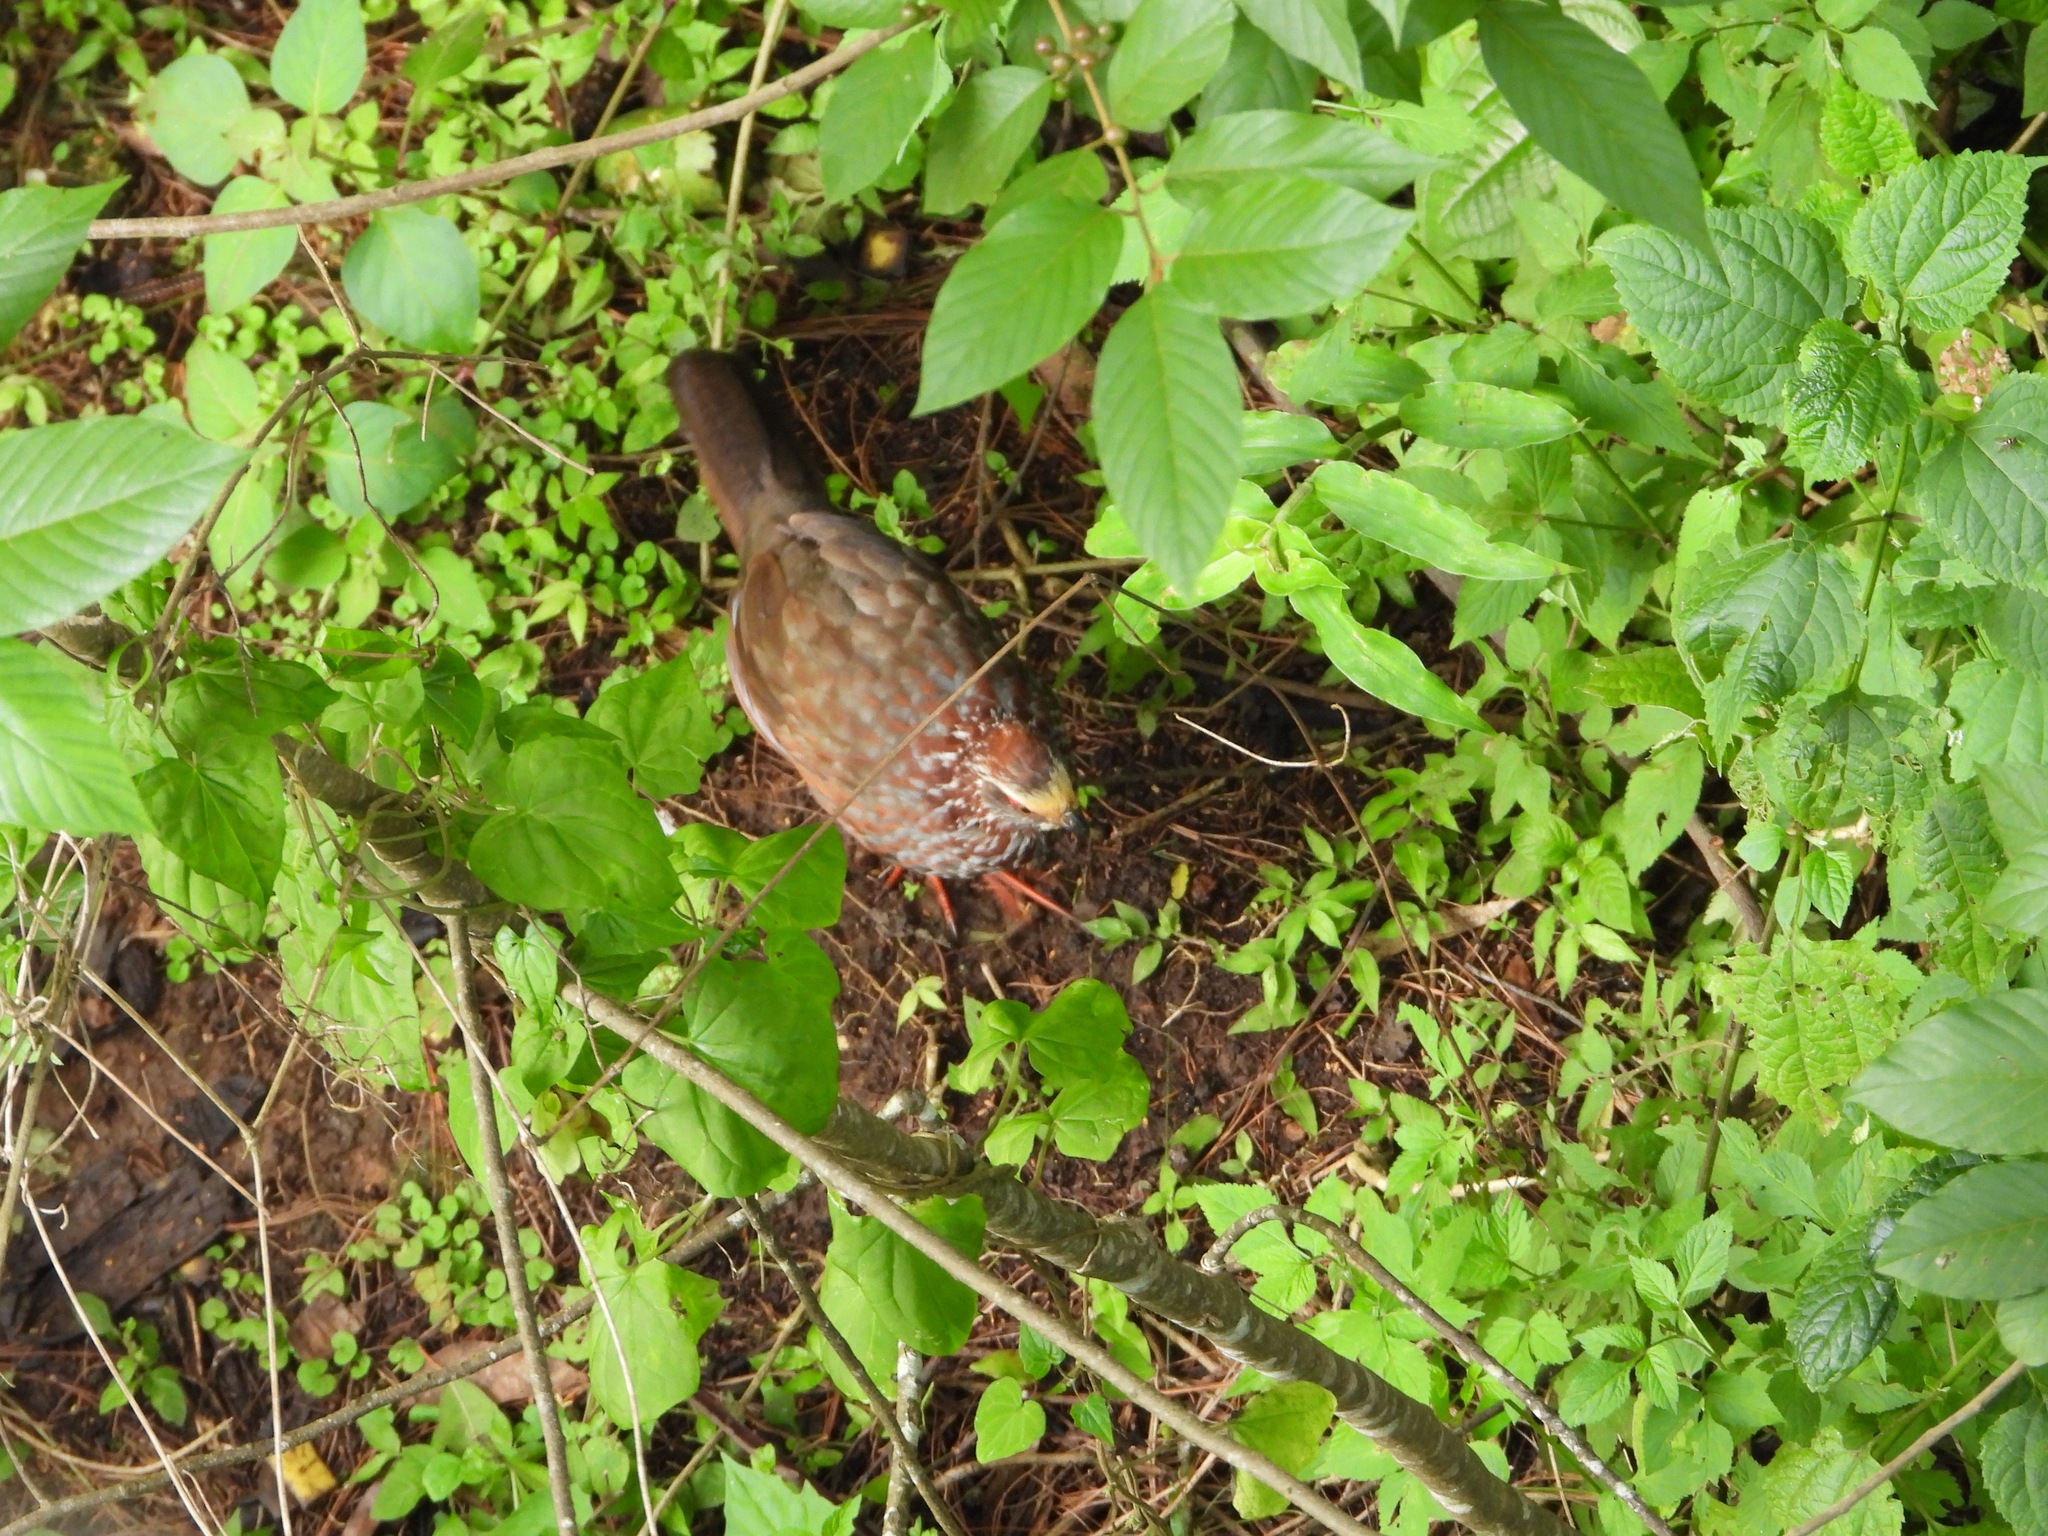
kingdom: Animalia
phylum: Chordata
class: Aves
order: Galliformes
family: Odontophoridae
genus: Dendrortyx
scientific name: Dendrortyx leucophrys
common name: Buffy-crowned wood-partridge
